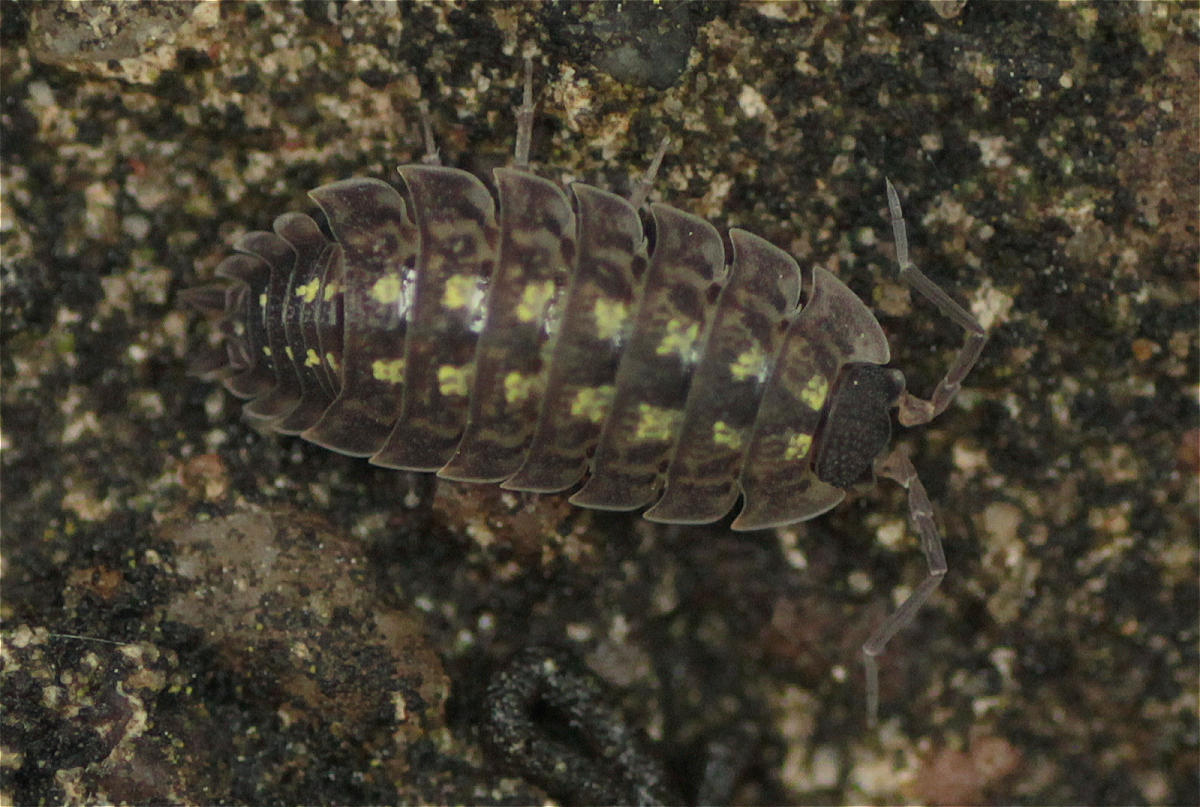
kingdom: Animalia
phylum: Arthropoda
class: Malacostraca
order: Isopoda
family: Porcellionidae
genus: Porcellio
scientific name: Porcellio spinicornis
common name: Painted woodlouse
